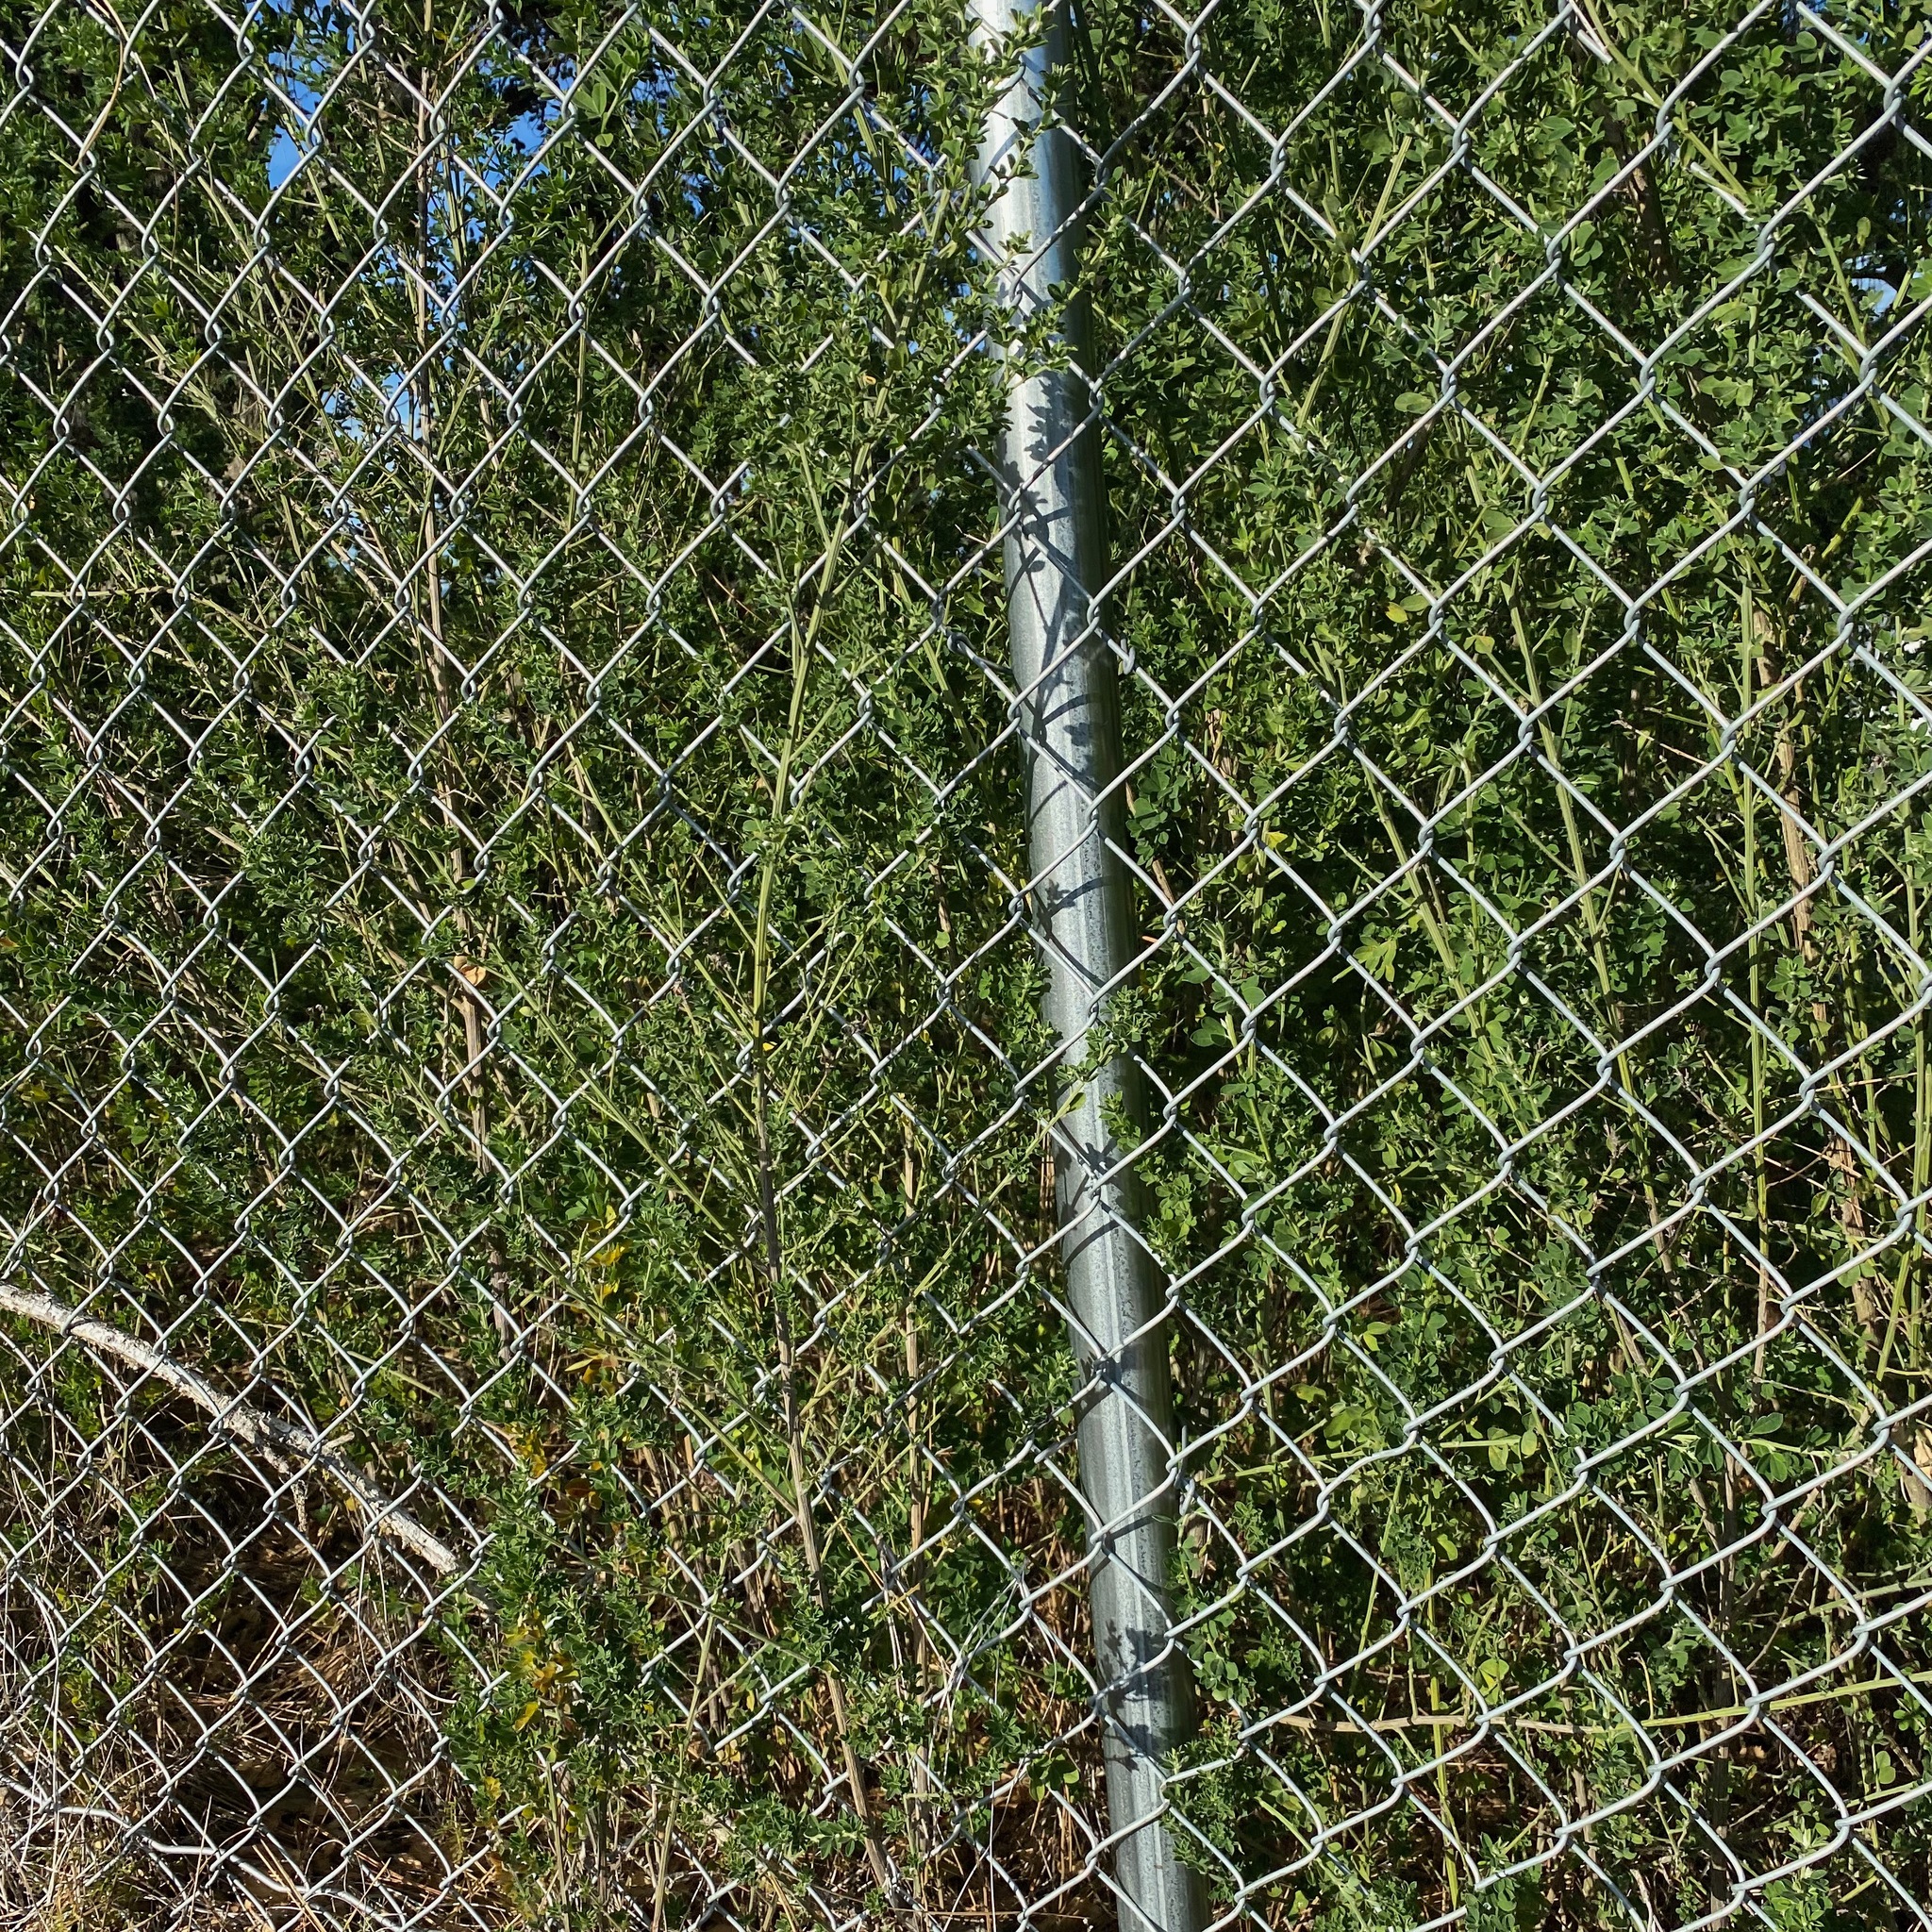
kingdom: Plantae
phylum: Tracheophyta
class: Magnoliopsida
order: Fabales
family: Fabaceae
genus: Genista
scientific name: Genista monspessulana
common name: Montpellier broom
